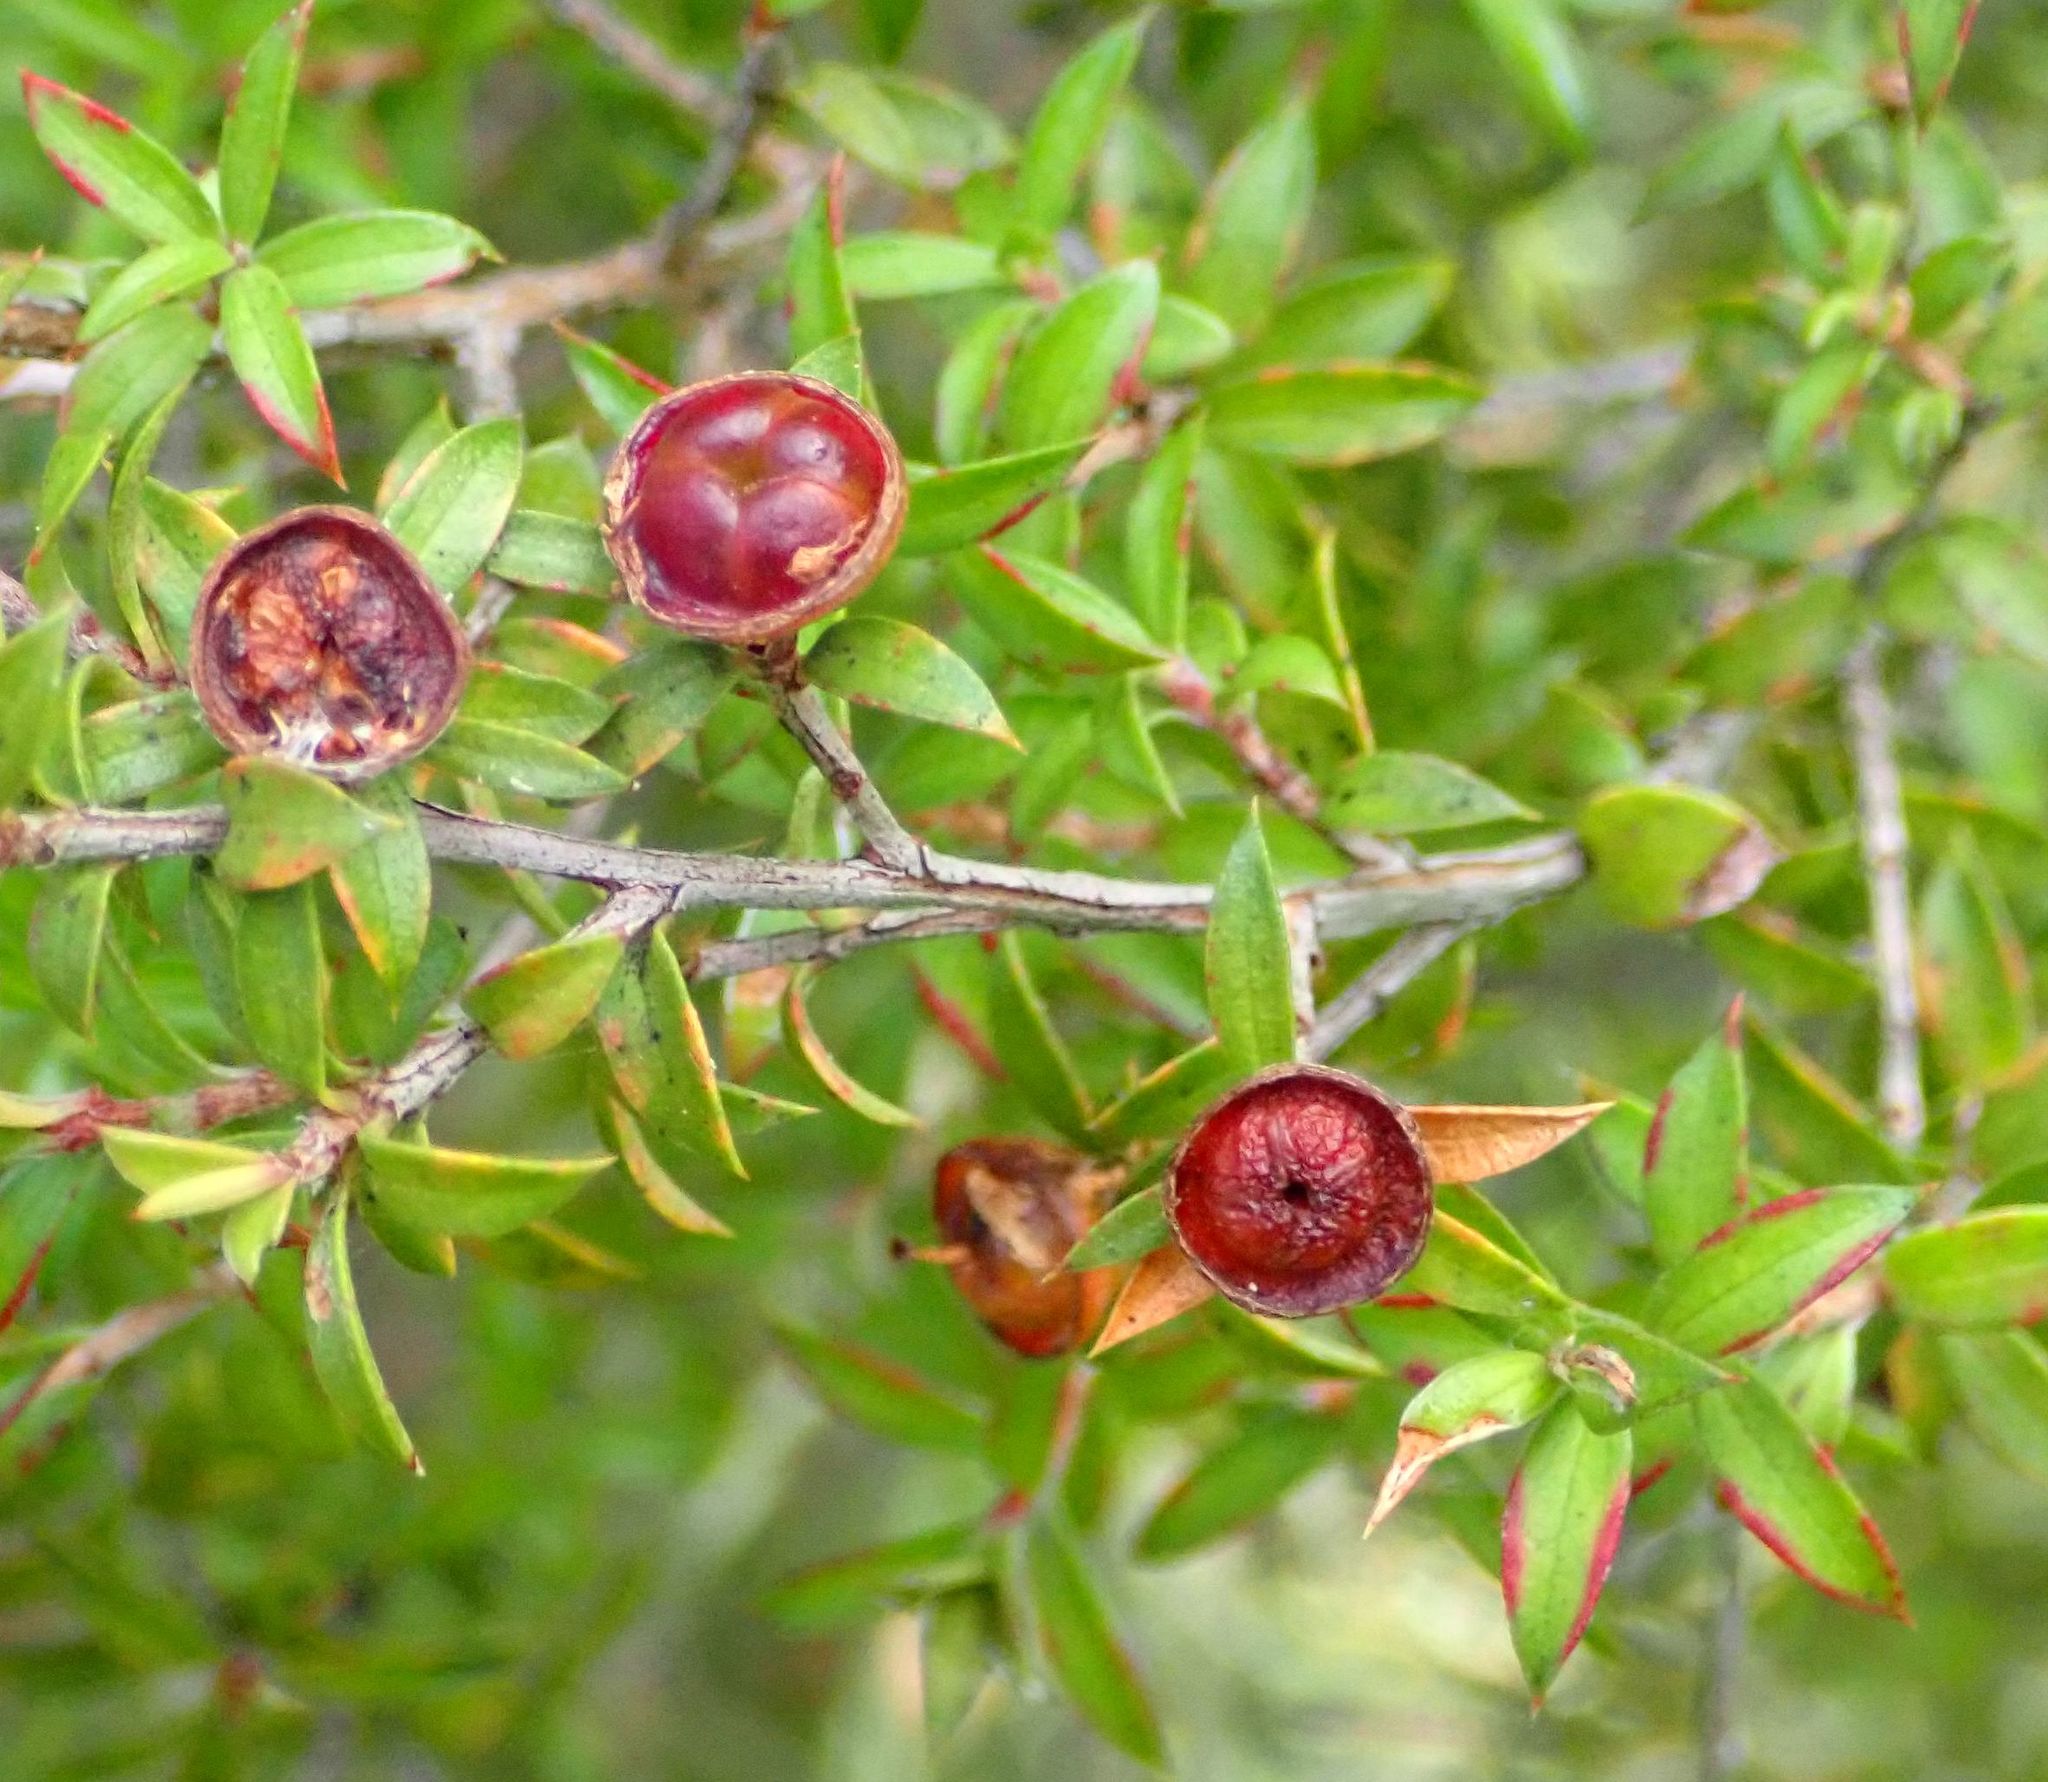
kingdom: Plantae
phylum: Tracheophyta
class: Magnoliopsida
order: Myrtales
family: Myrtaceae
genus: Leptospermum
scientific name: Leptospermum scoparium
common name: Broom tea-tree
